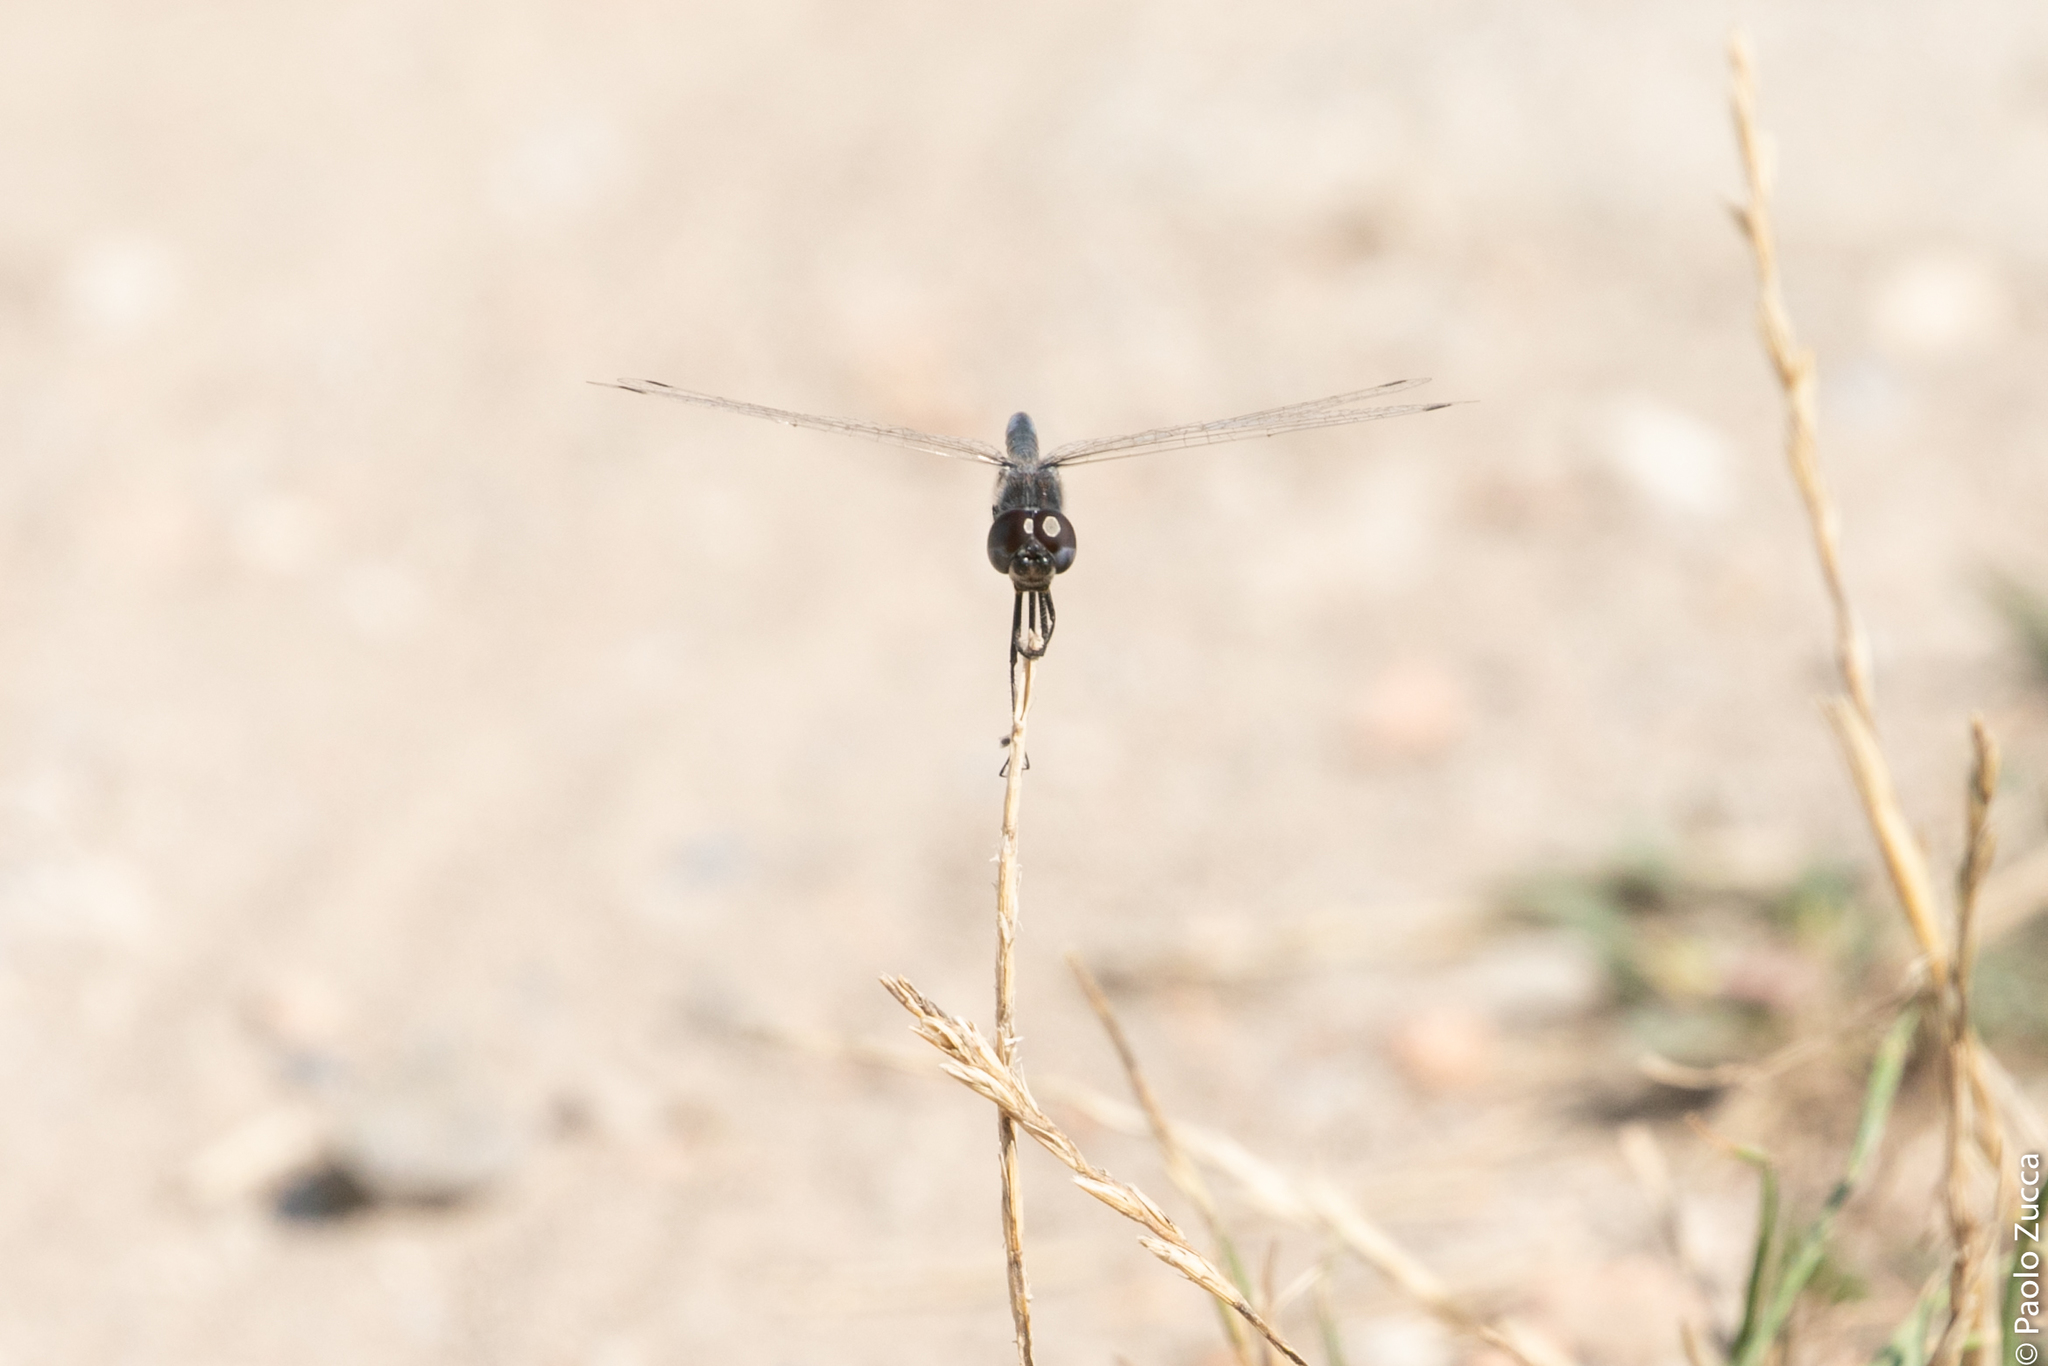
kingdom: Animalia
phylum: Arthropoda
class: Insecta
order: Odonata
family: Libellulidae
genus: Selysiothemis
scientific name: Selysiothemis nigra
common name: Black pennant
